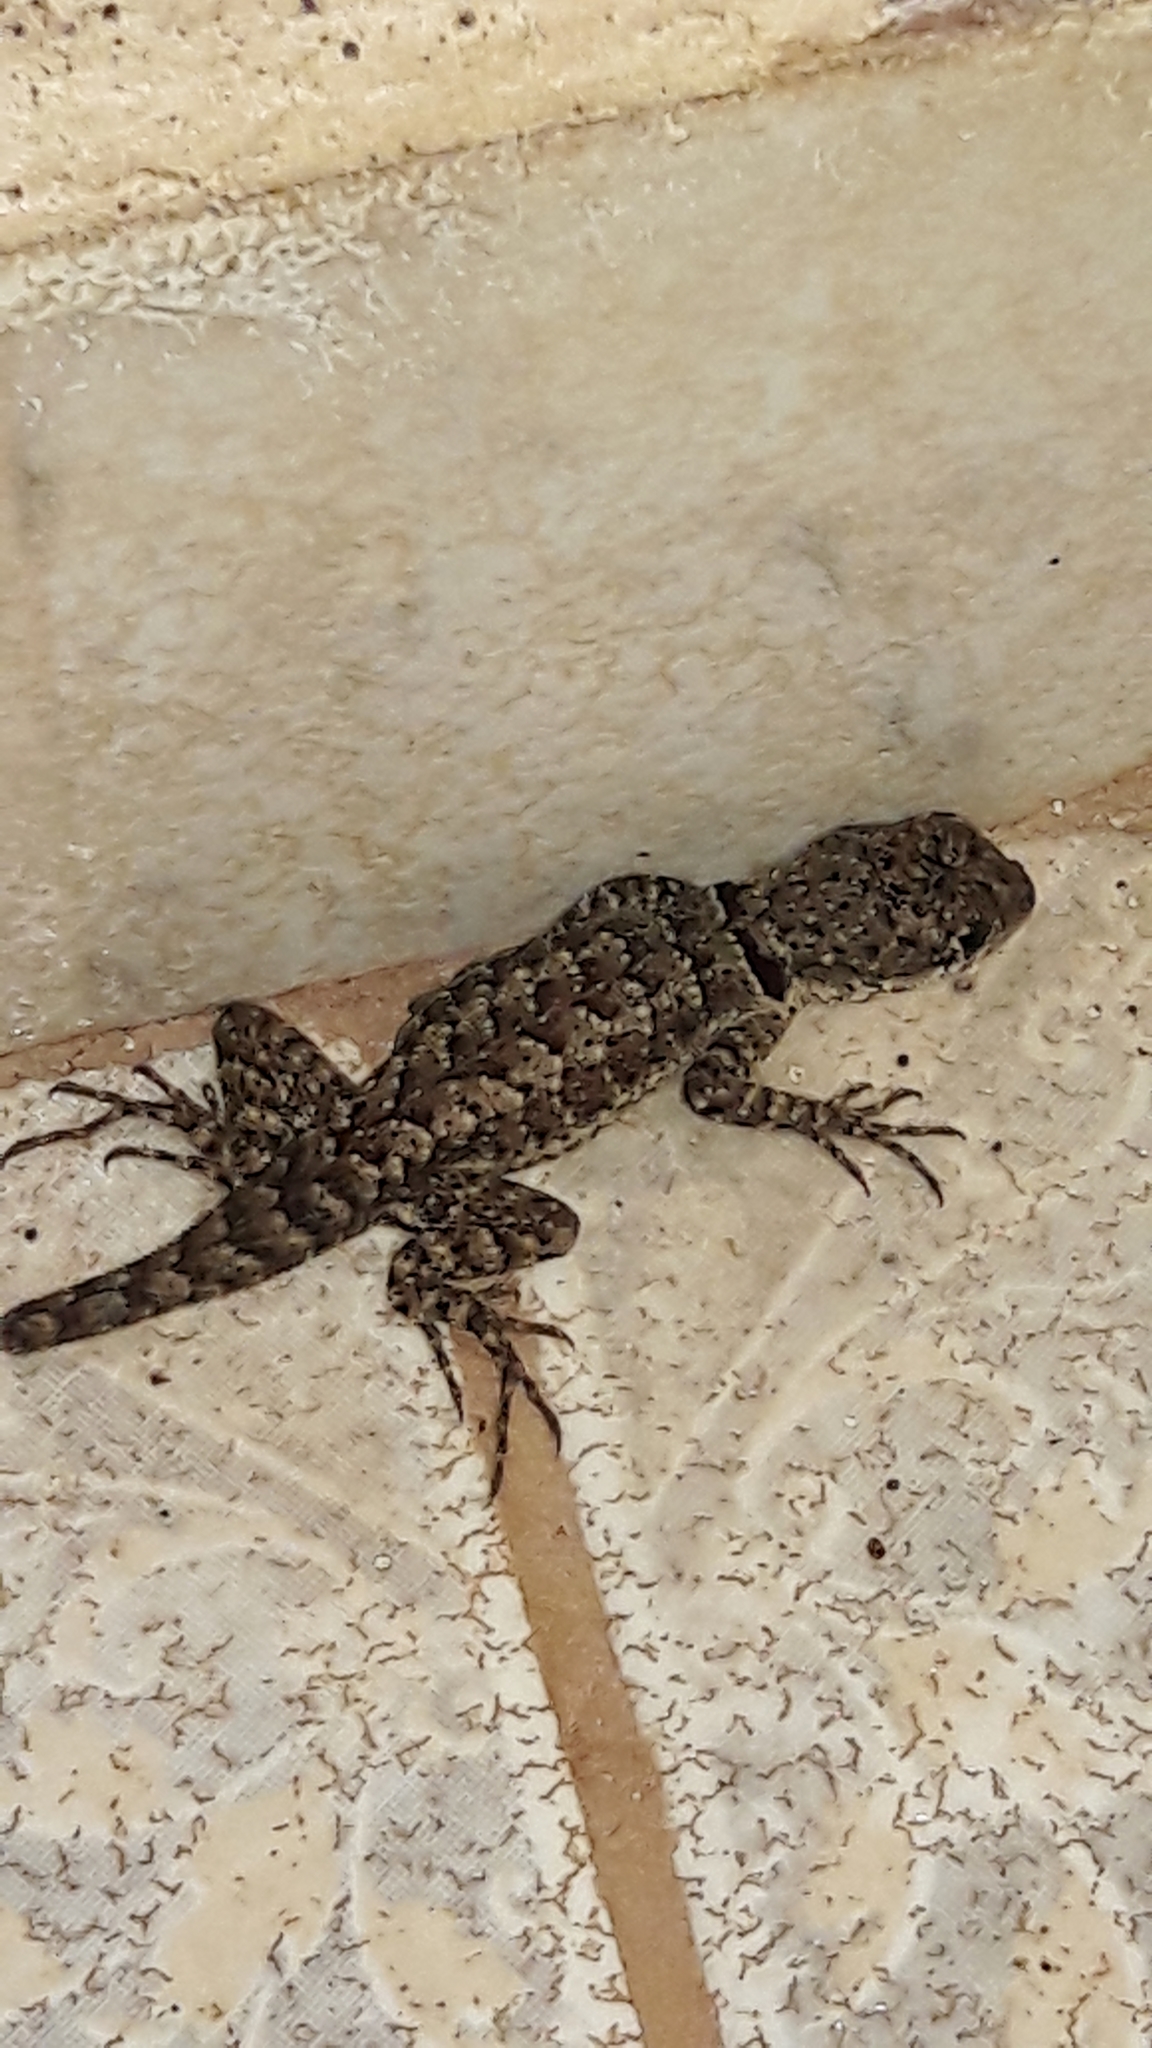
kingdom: Animalia
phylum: Chordata
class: Squamata
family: Tropiduridae
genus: Tropidurus
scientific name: Tropidurus torquatus
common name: Amazon lava lizard
